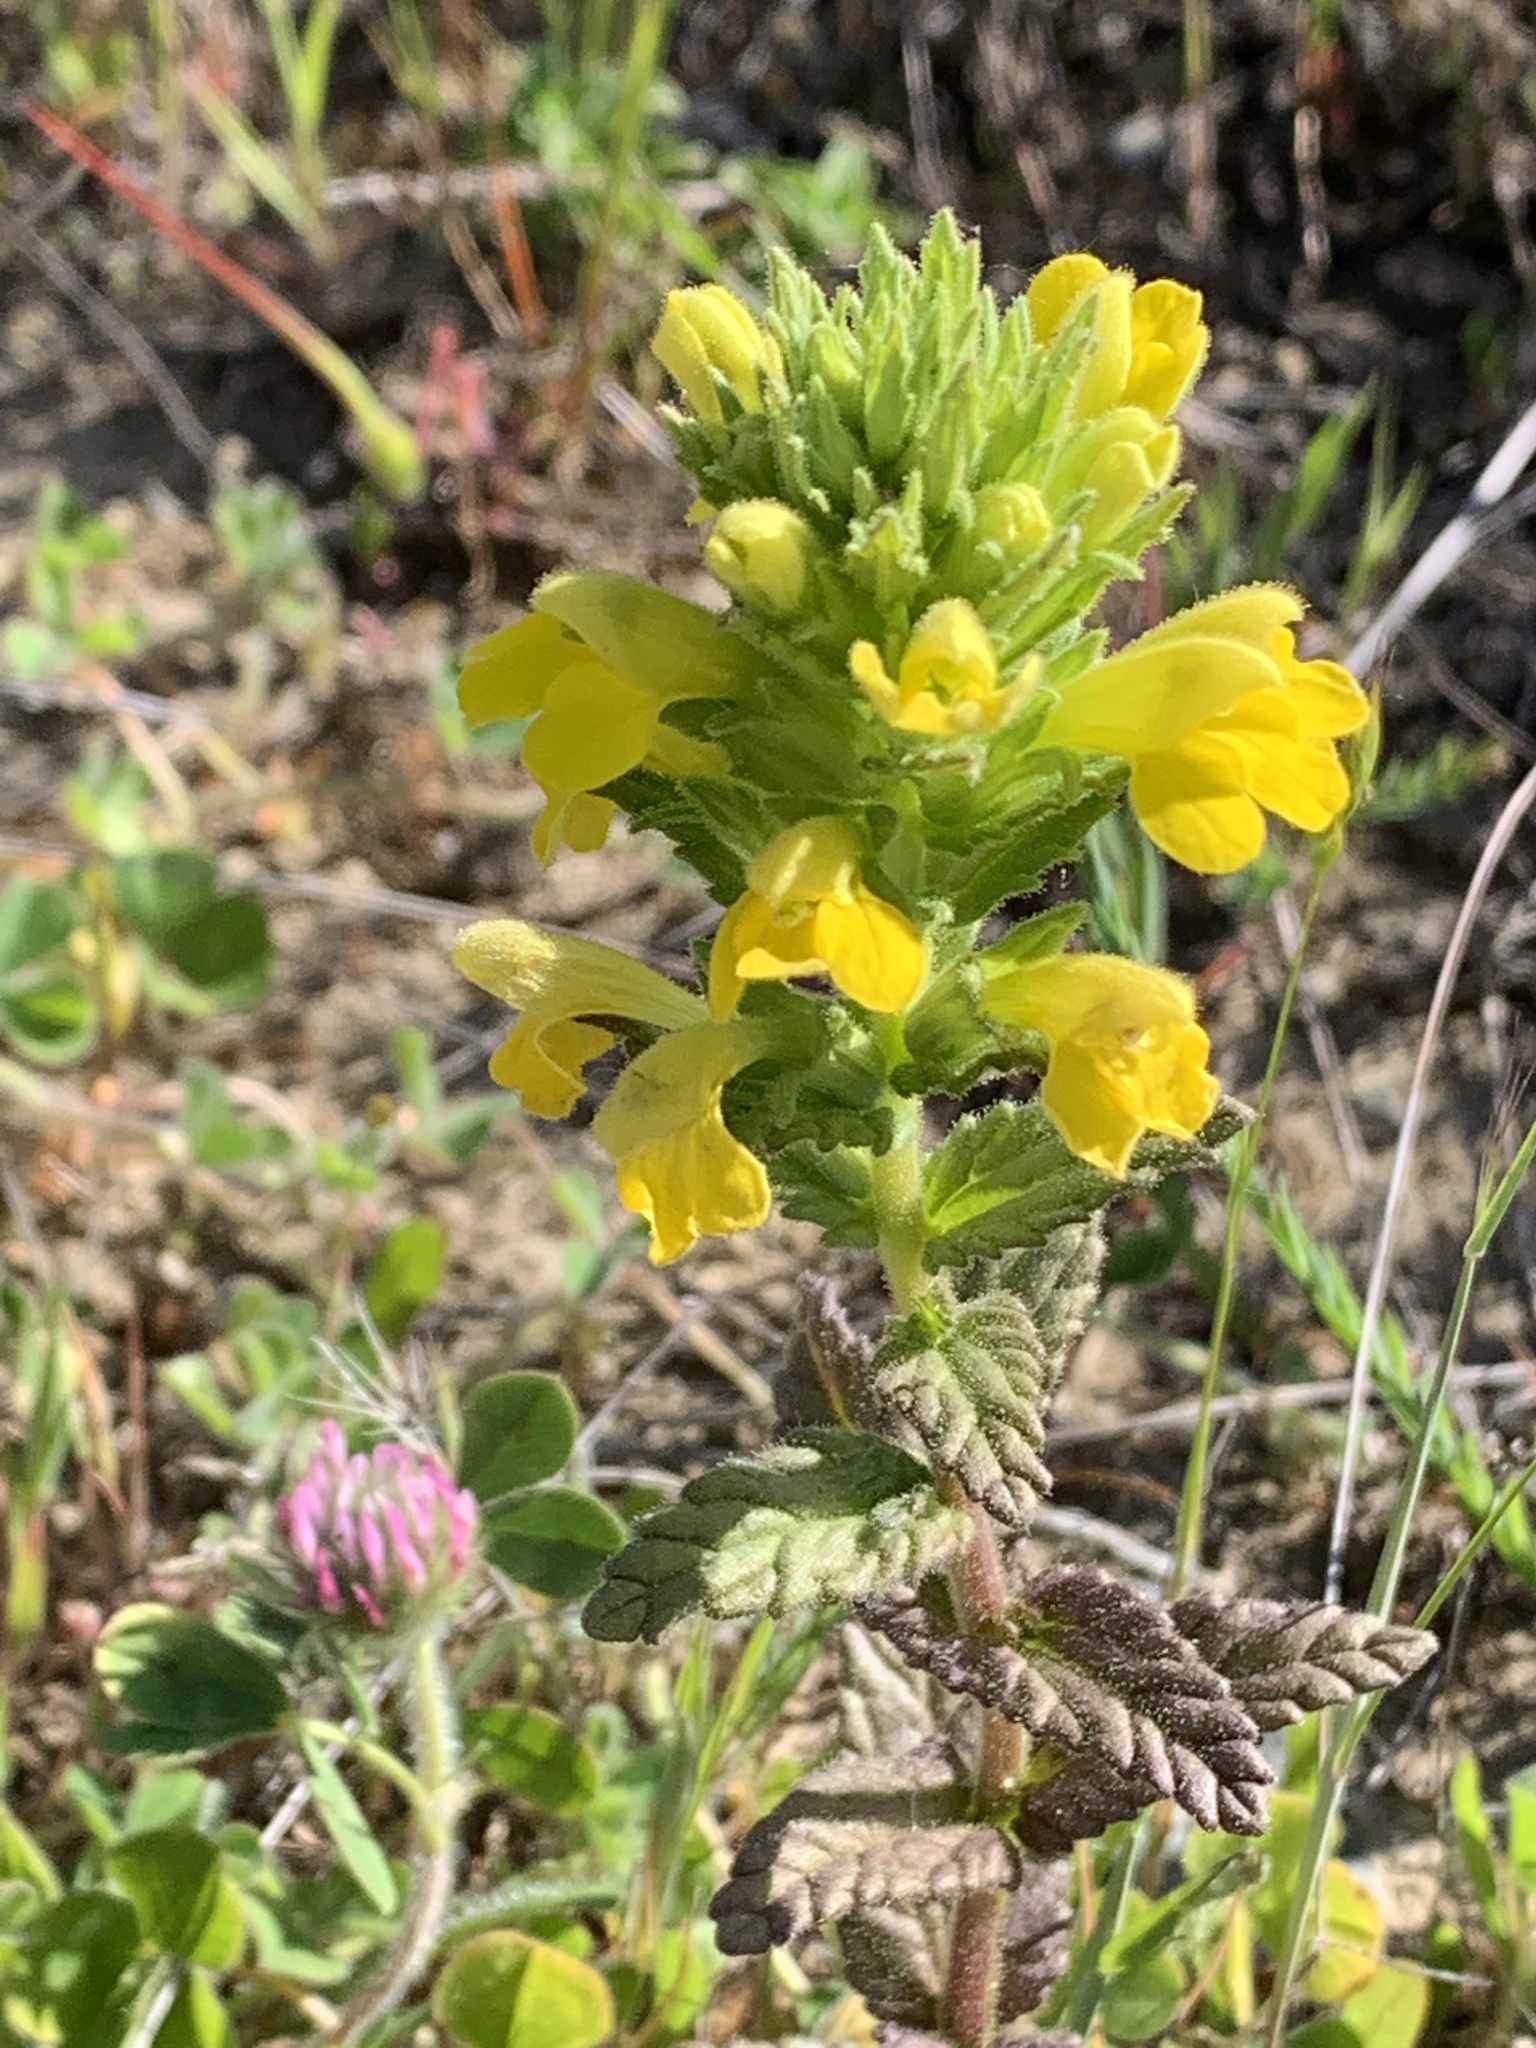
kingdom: Plantae
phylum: Tracheophyta
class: Magnoliopsida
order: Lamiales
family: Orobanchaceae
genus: Bellardia
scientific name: Bellardia viscosa
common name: Sticky parentucellia
